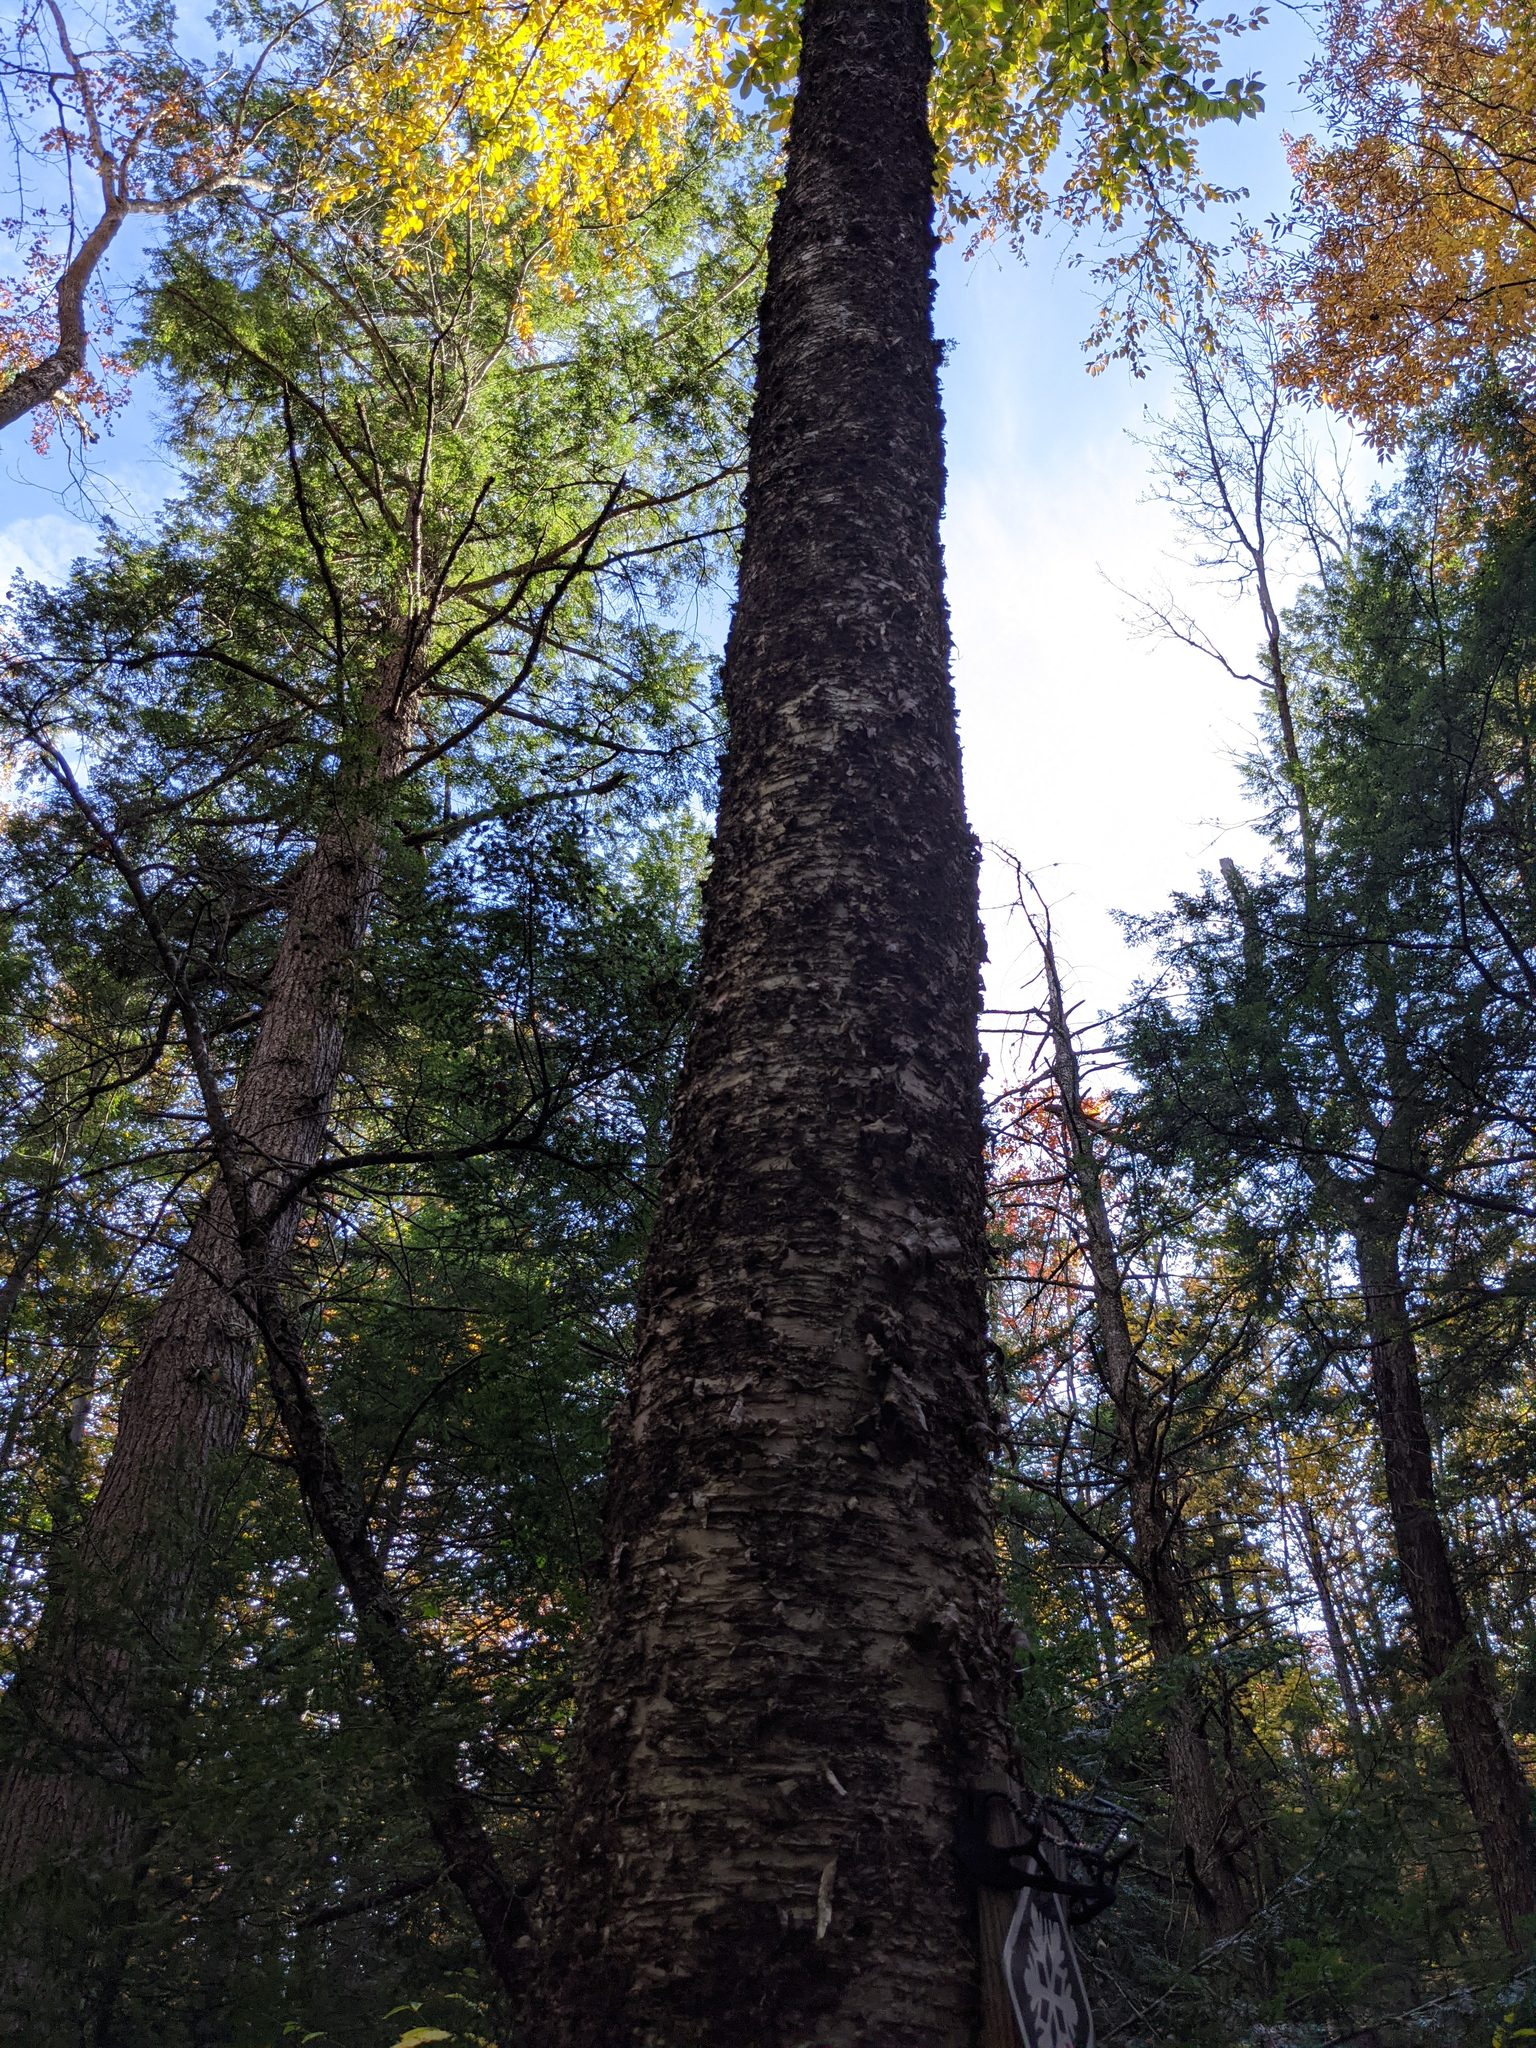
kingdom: Plantae
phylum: Tracheophyta
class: Magnoliopsida
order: Fagales
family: Betulaceae
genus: Betula
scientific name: Betula alleghaniensis
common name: Yellow birch
